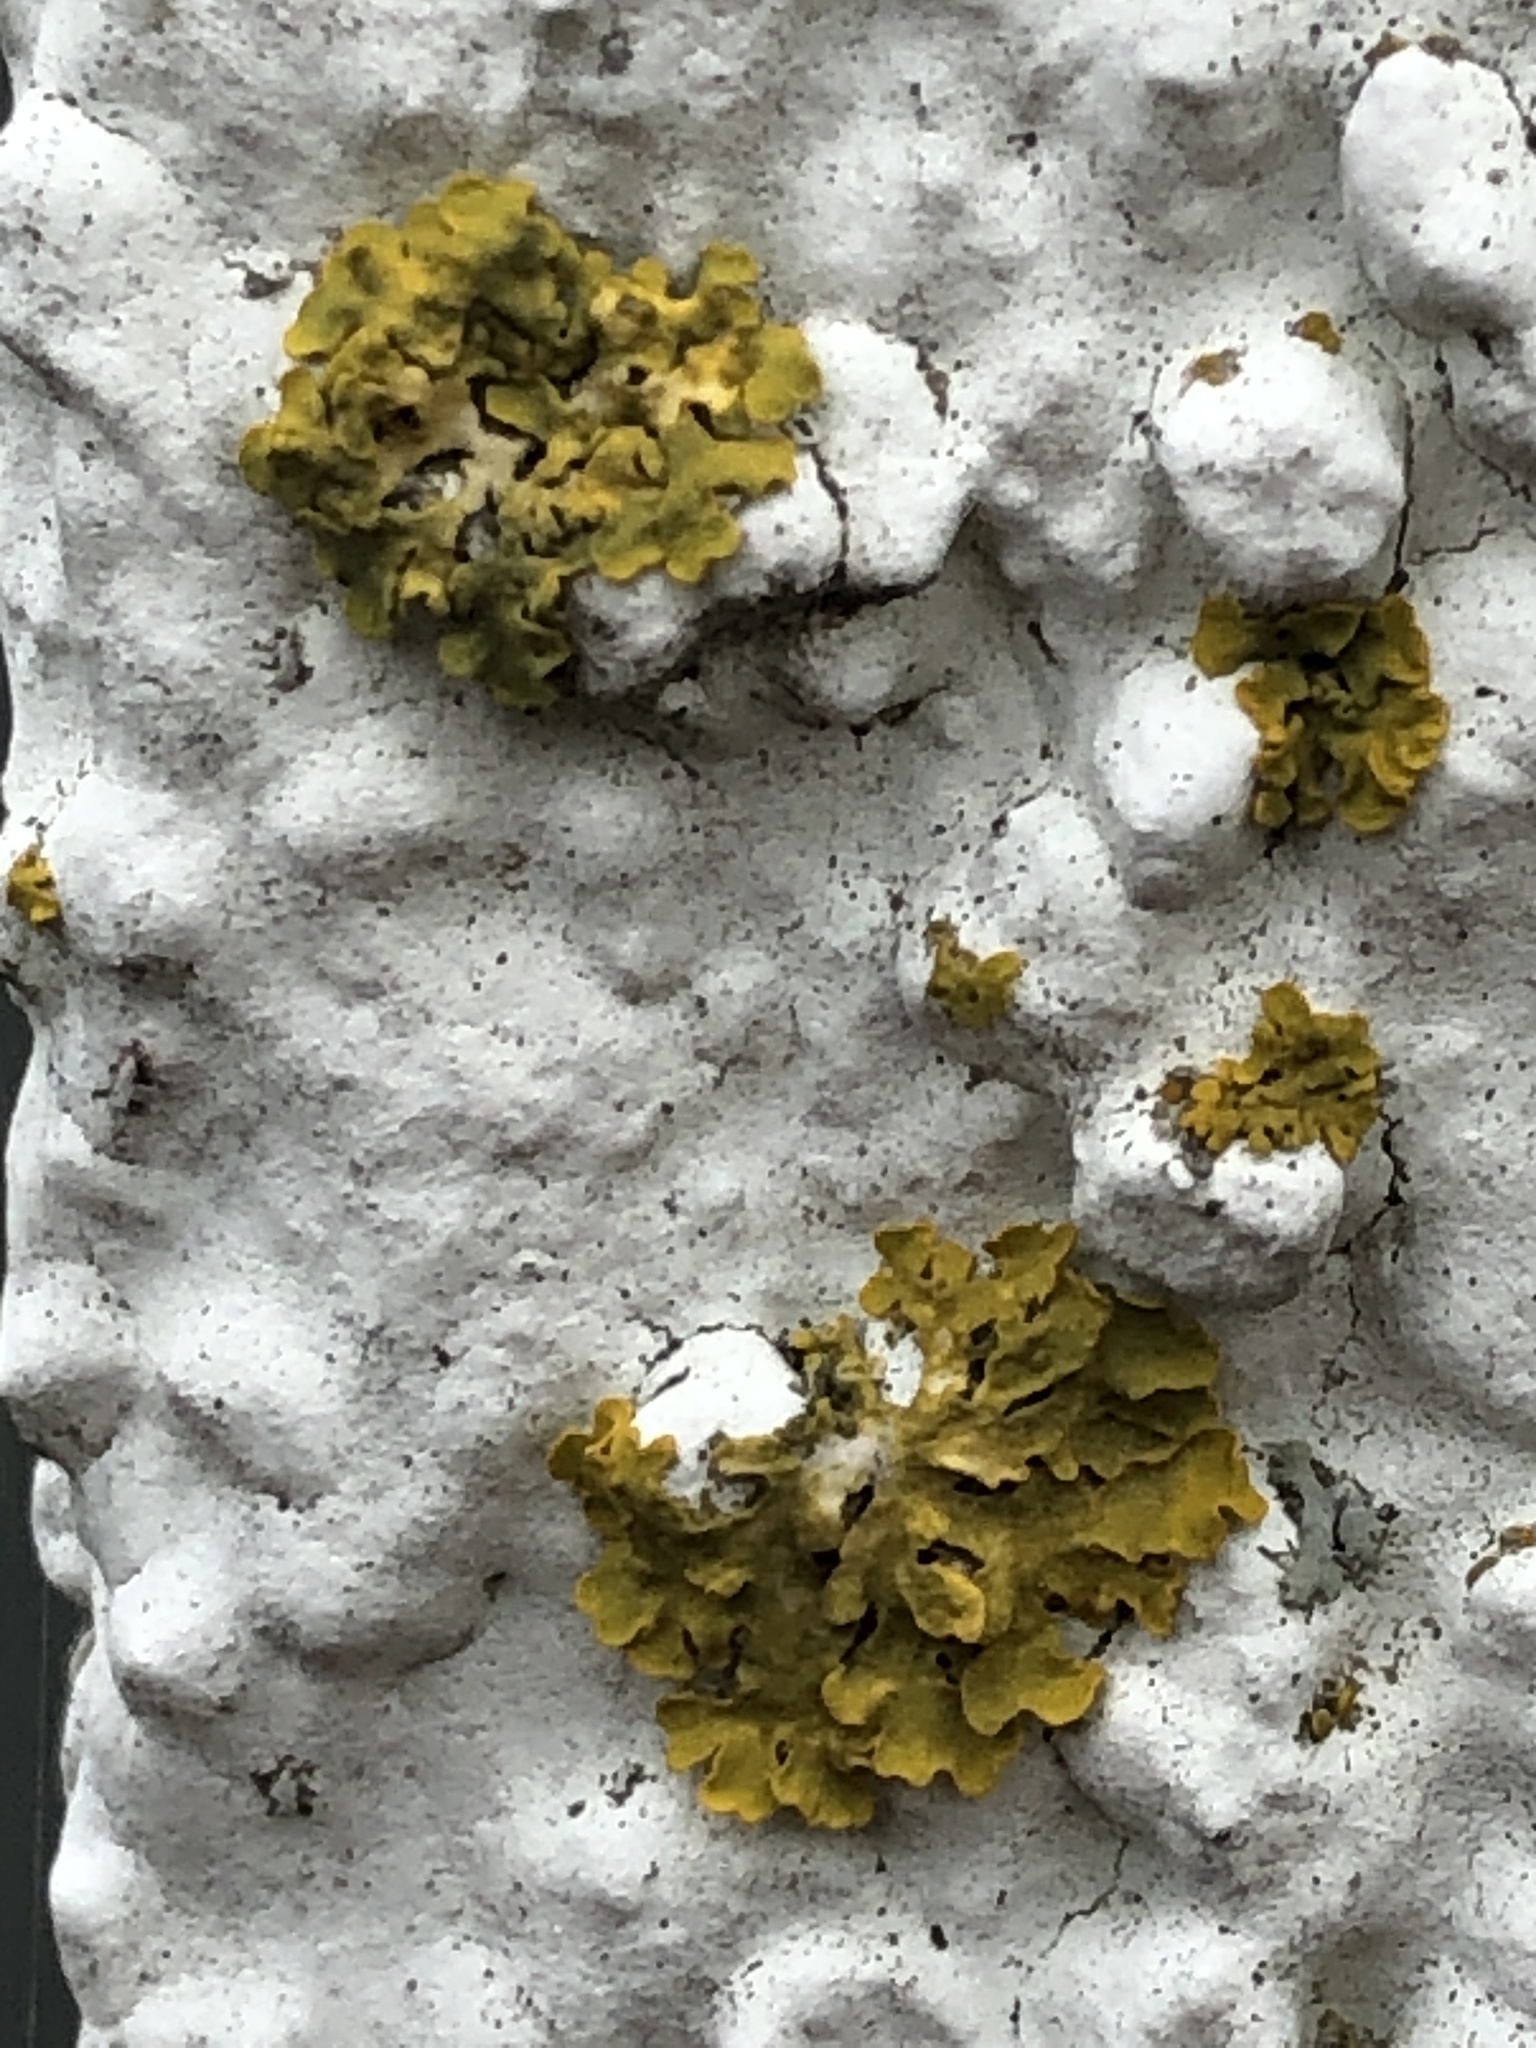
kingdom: Fungi
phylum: Ascomycota
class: Lecanoromycetes
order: Teloschistales
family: Teloschistaceae
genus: Xanthoria
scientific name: Xanthoria parietina
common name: Common orange lichen
